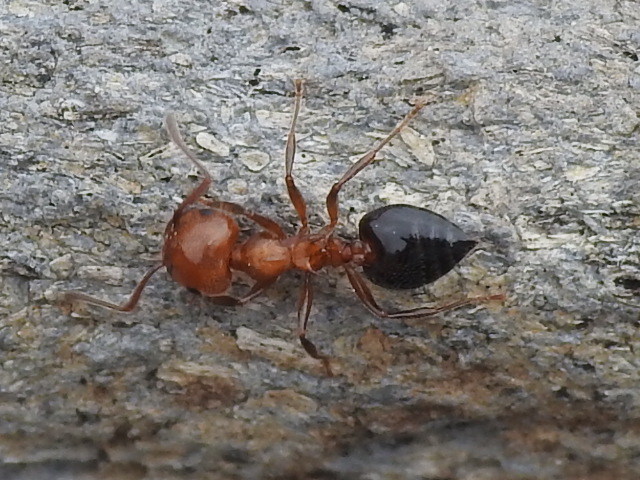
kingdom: Animalia
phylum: Arthropoda
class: Insecta
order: Hymenoptera
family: Formicidae
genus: Crematogaster
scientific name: Crematogaster laeviuscula
